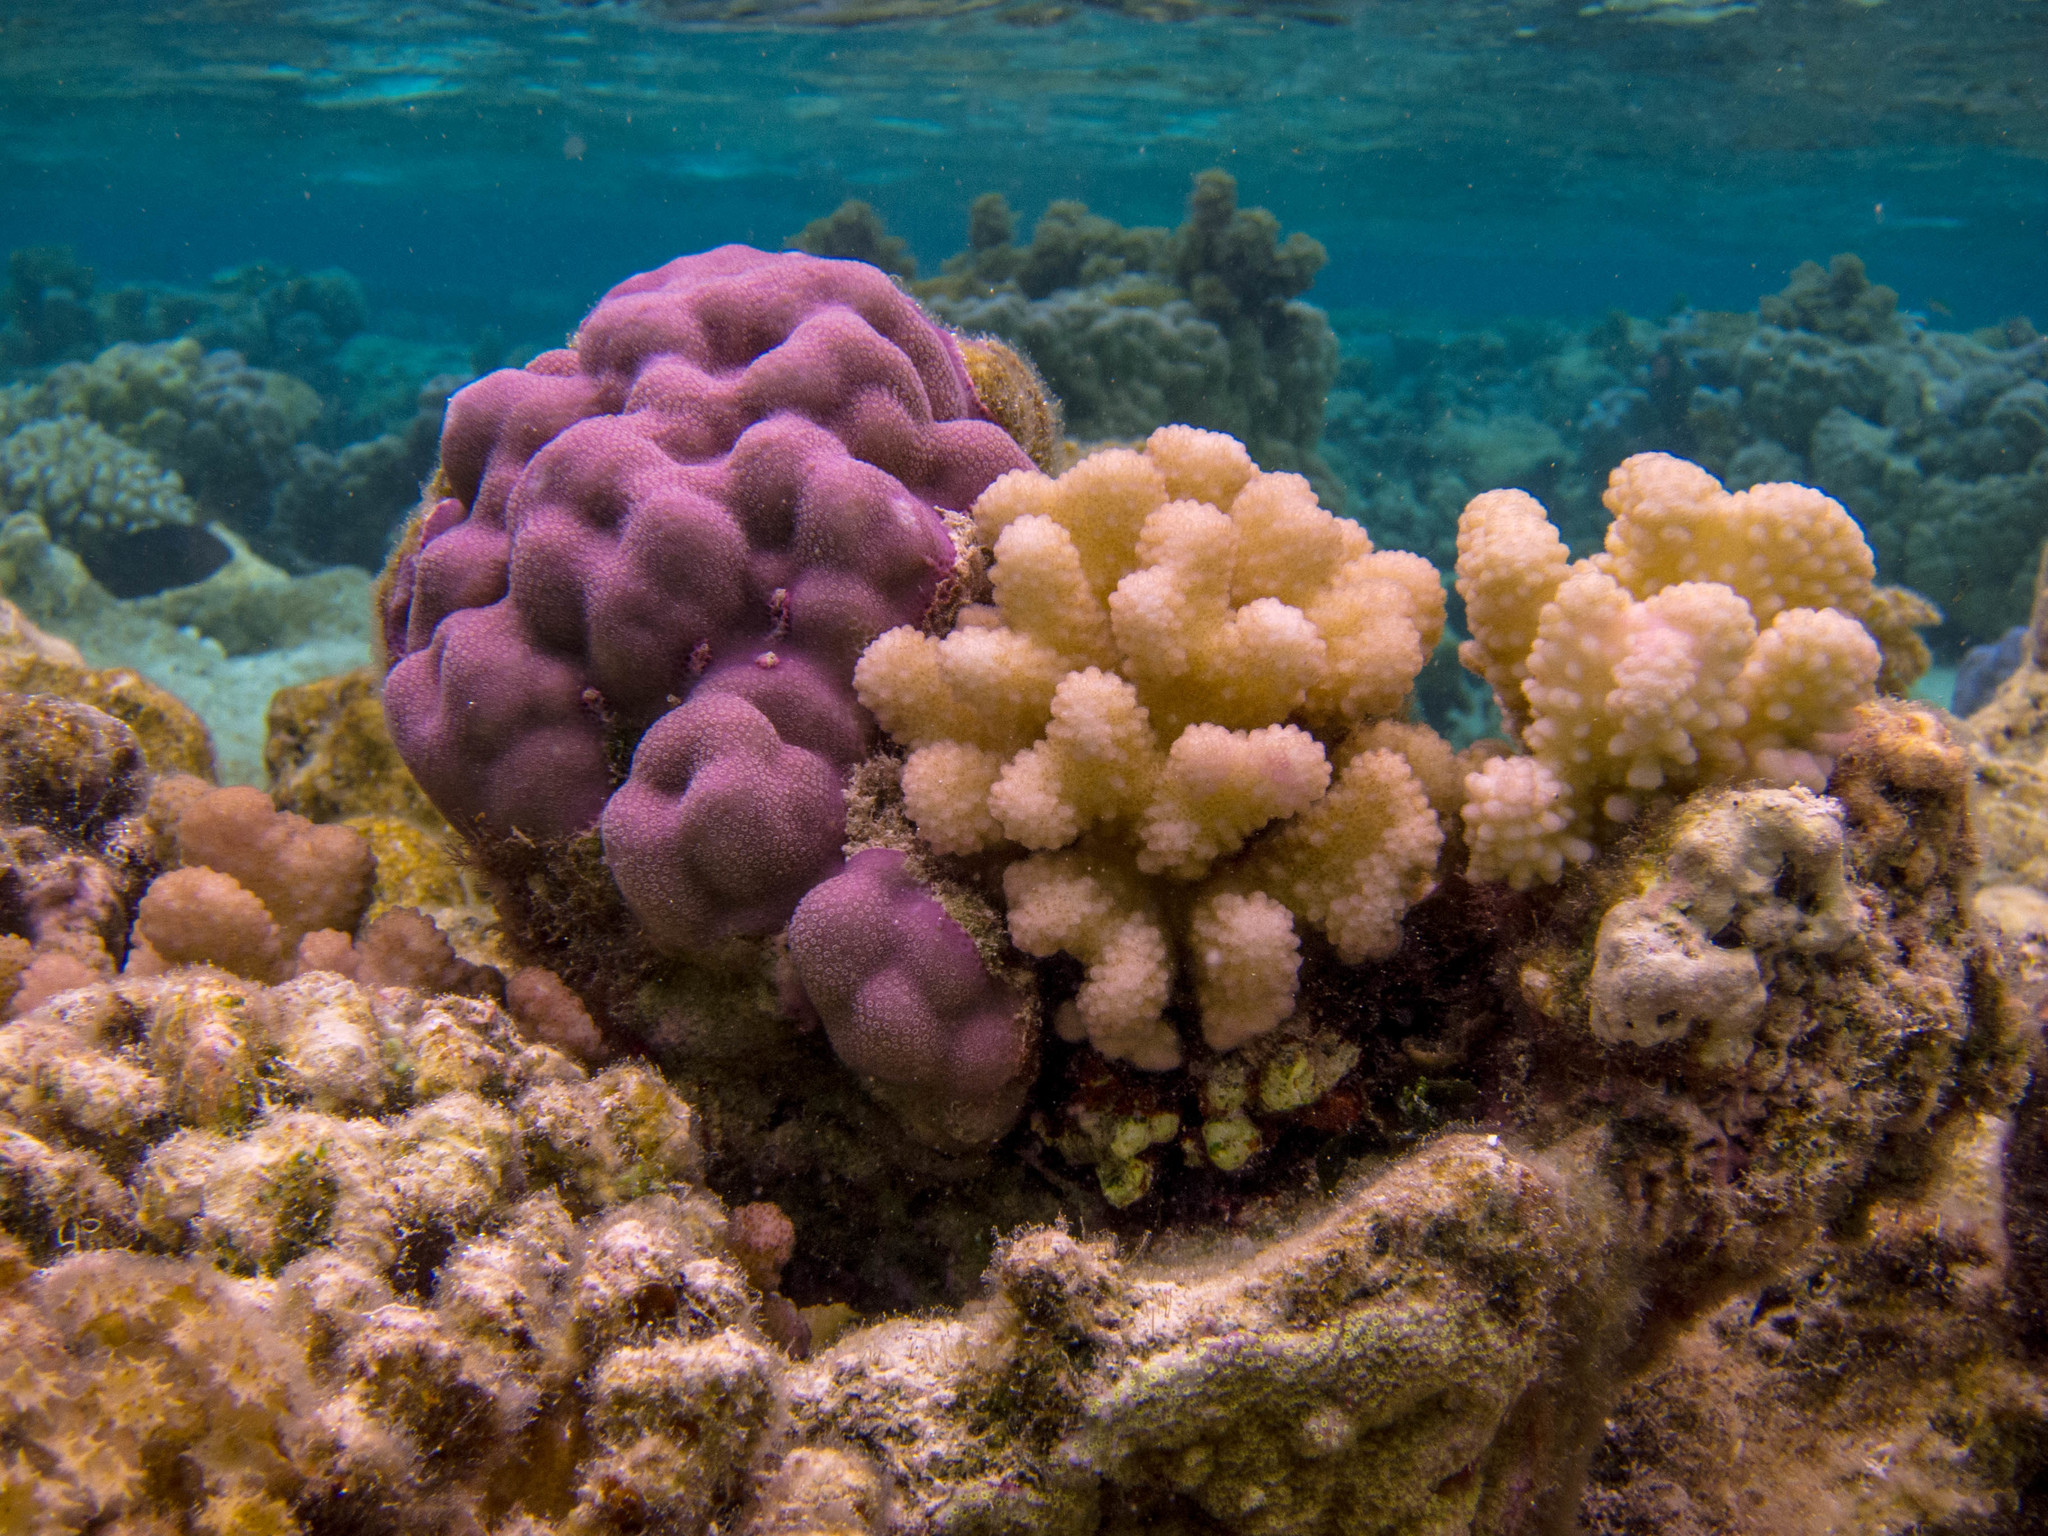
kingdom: Animalia
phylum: Cnidaria
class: Anthozoa
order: Scleractinia
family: Poritidae
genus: Porites
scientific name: Porites lobata
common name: Hump coral
